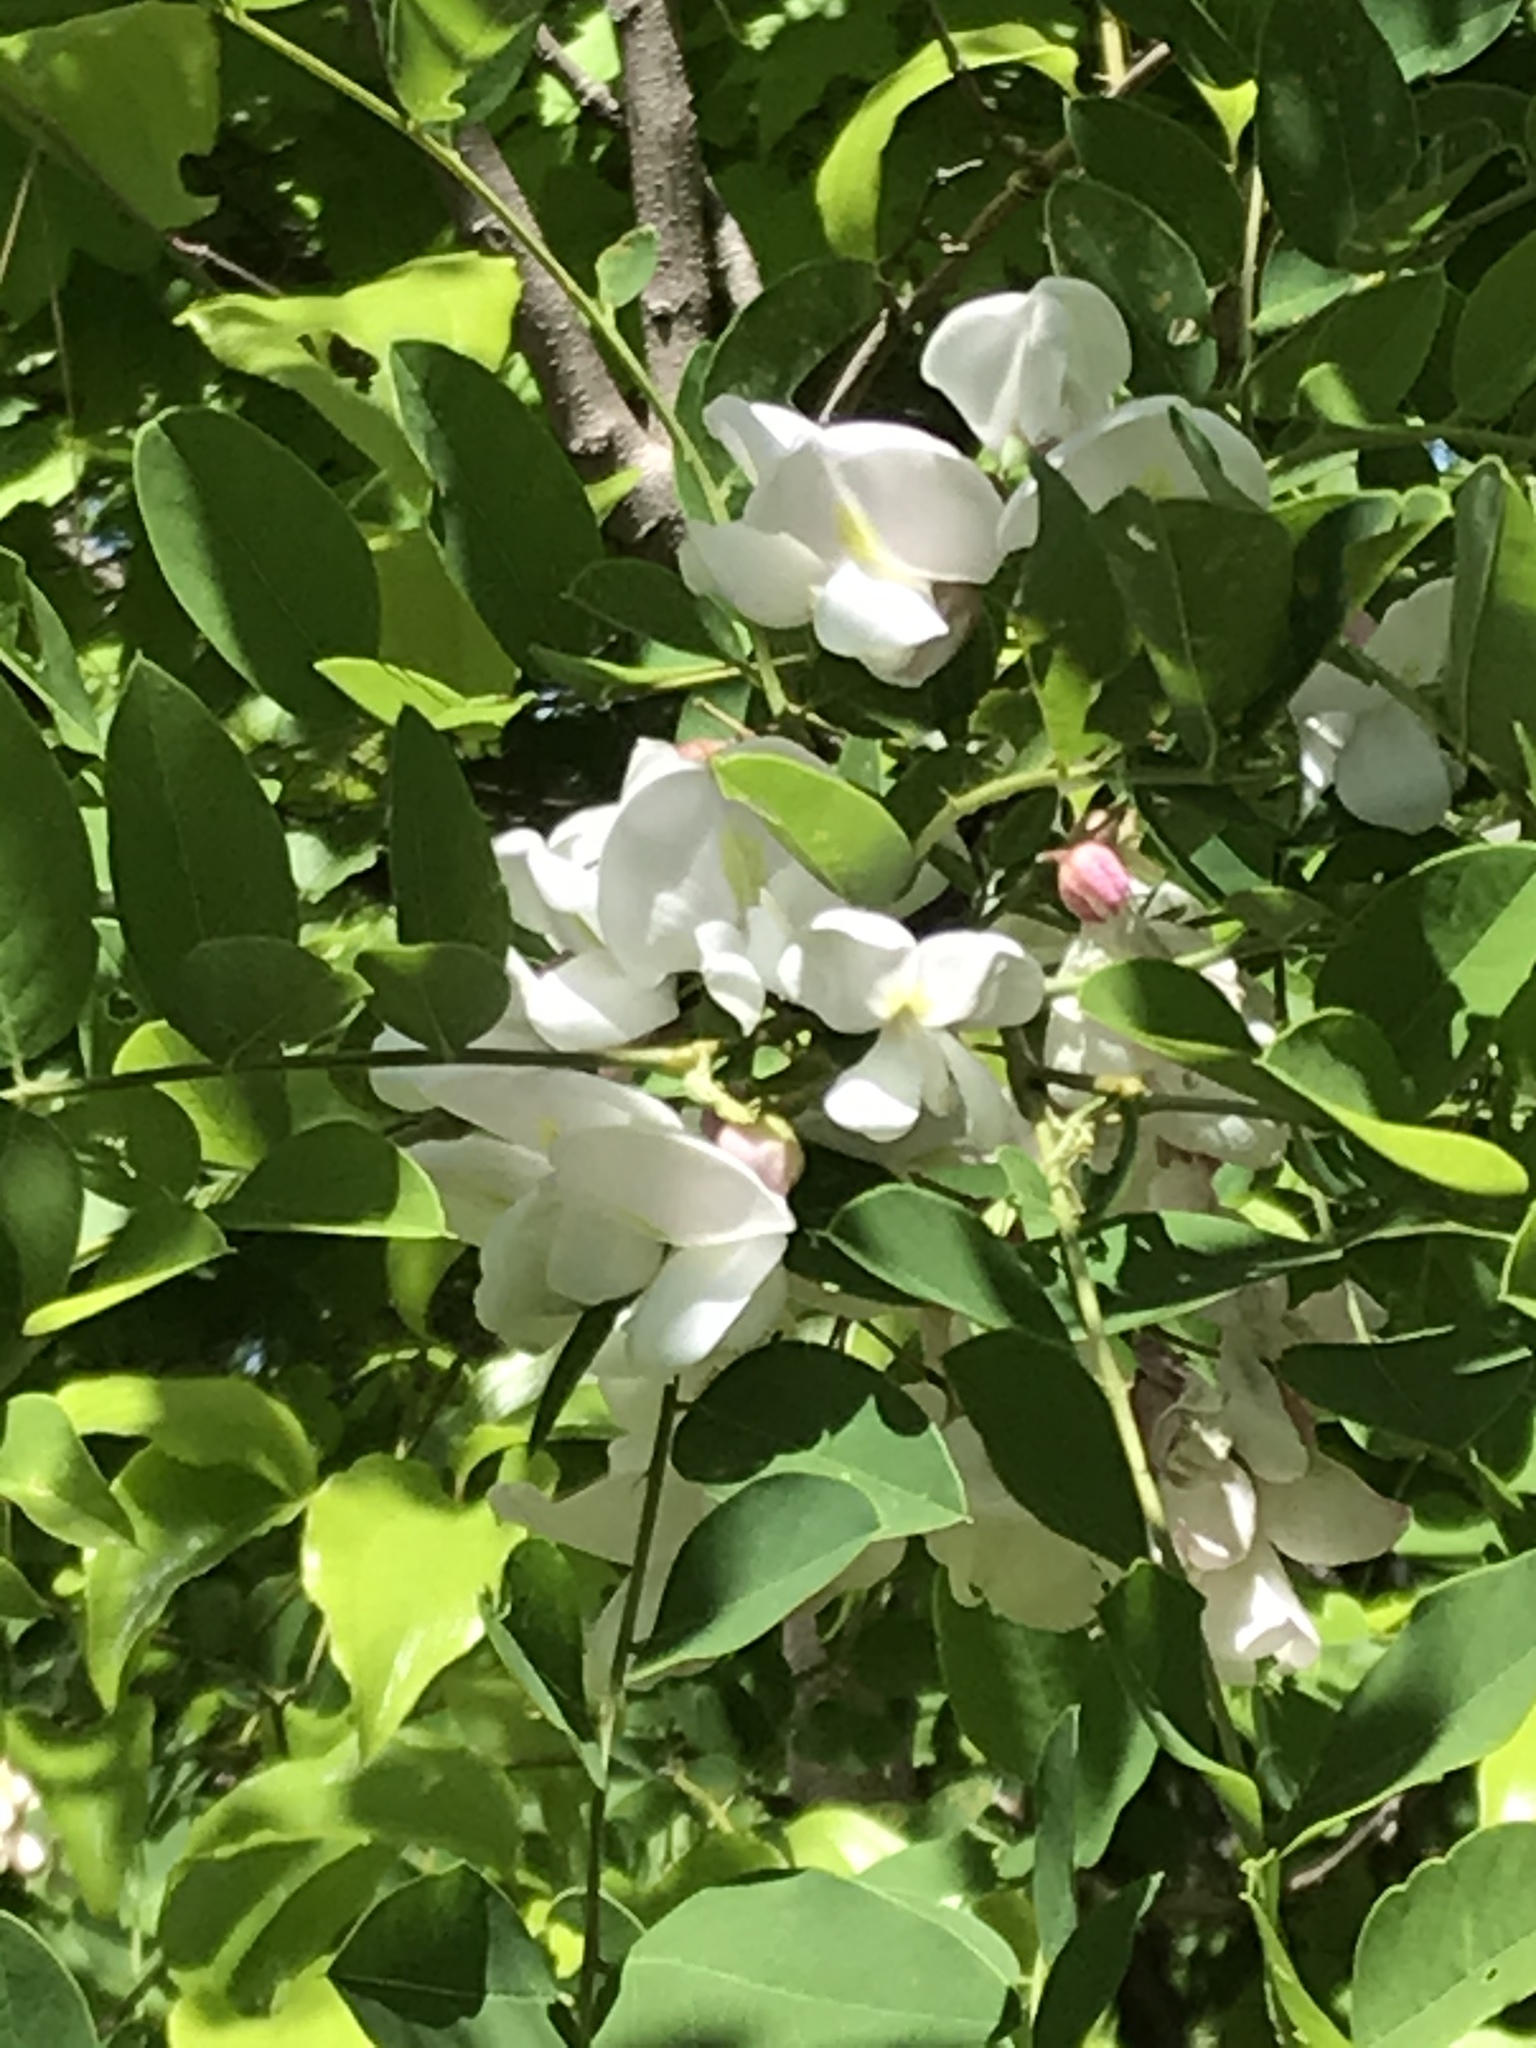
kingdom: Plantae
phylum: Tracheophyta
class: Magnoliopsida
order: Fabales
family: Fabaceae
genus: Robinia
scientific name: Robinia pseudoacacia
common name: Black locust
